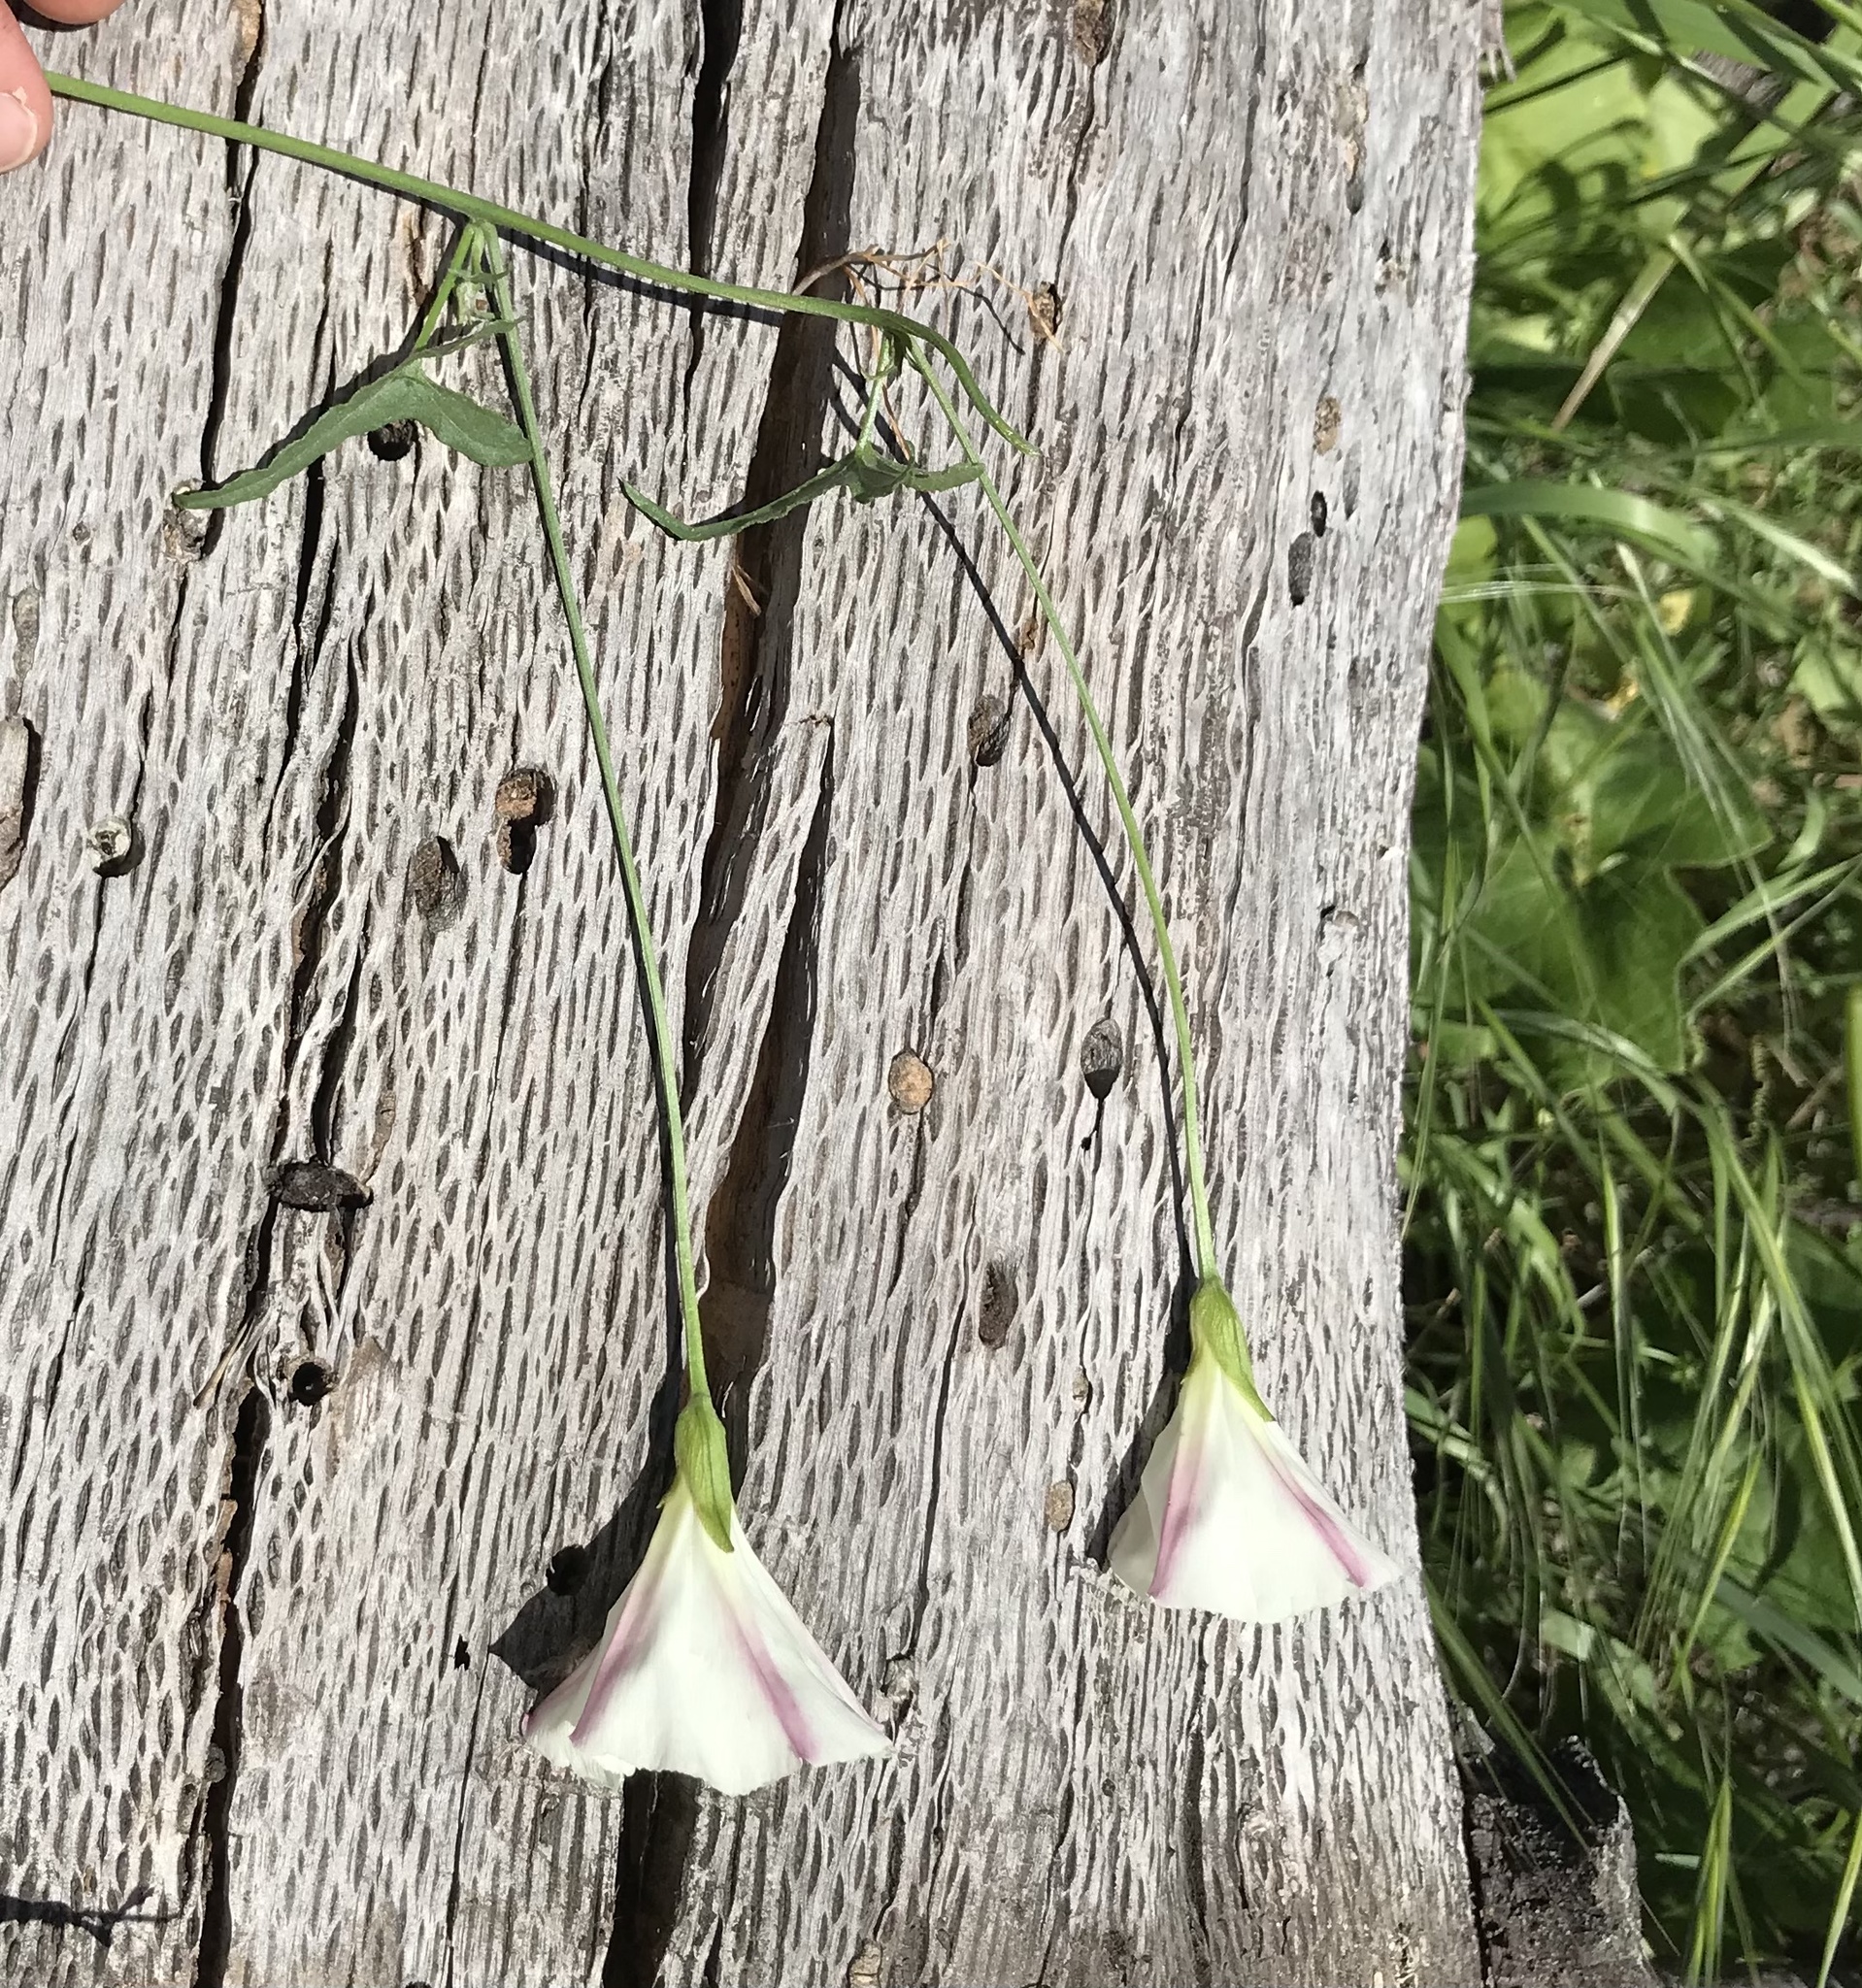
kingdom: Plantae
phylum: Tracheophyta
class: Magnoliopsida
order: Solanales
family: Convolvulaceae
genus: Calystegia
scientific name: Calystegia macrostegia
